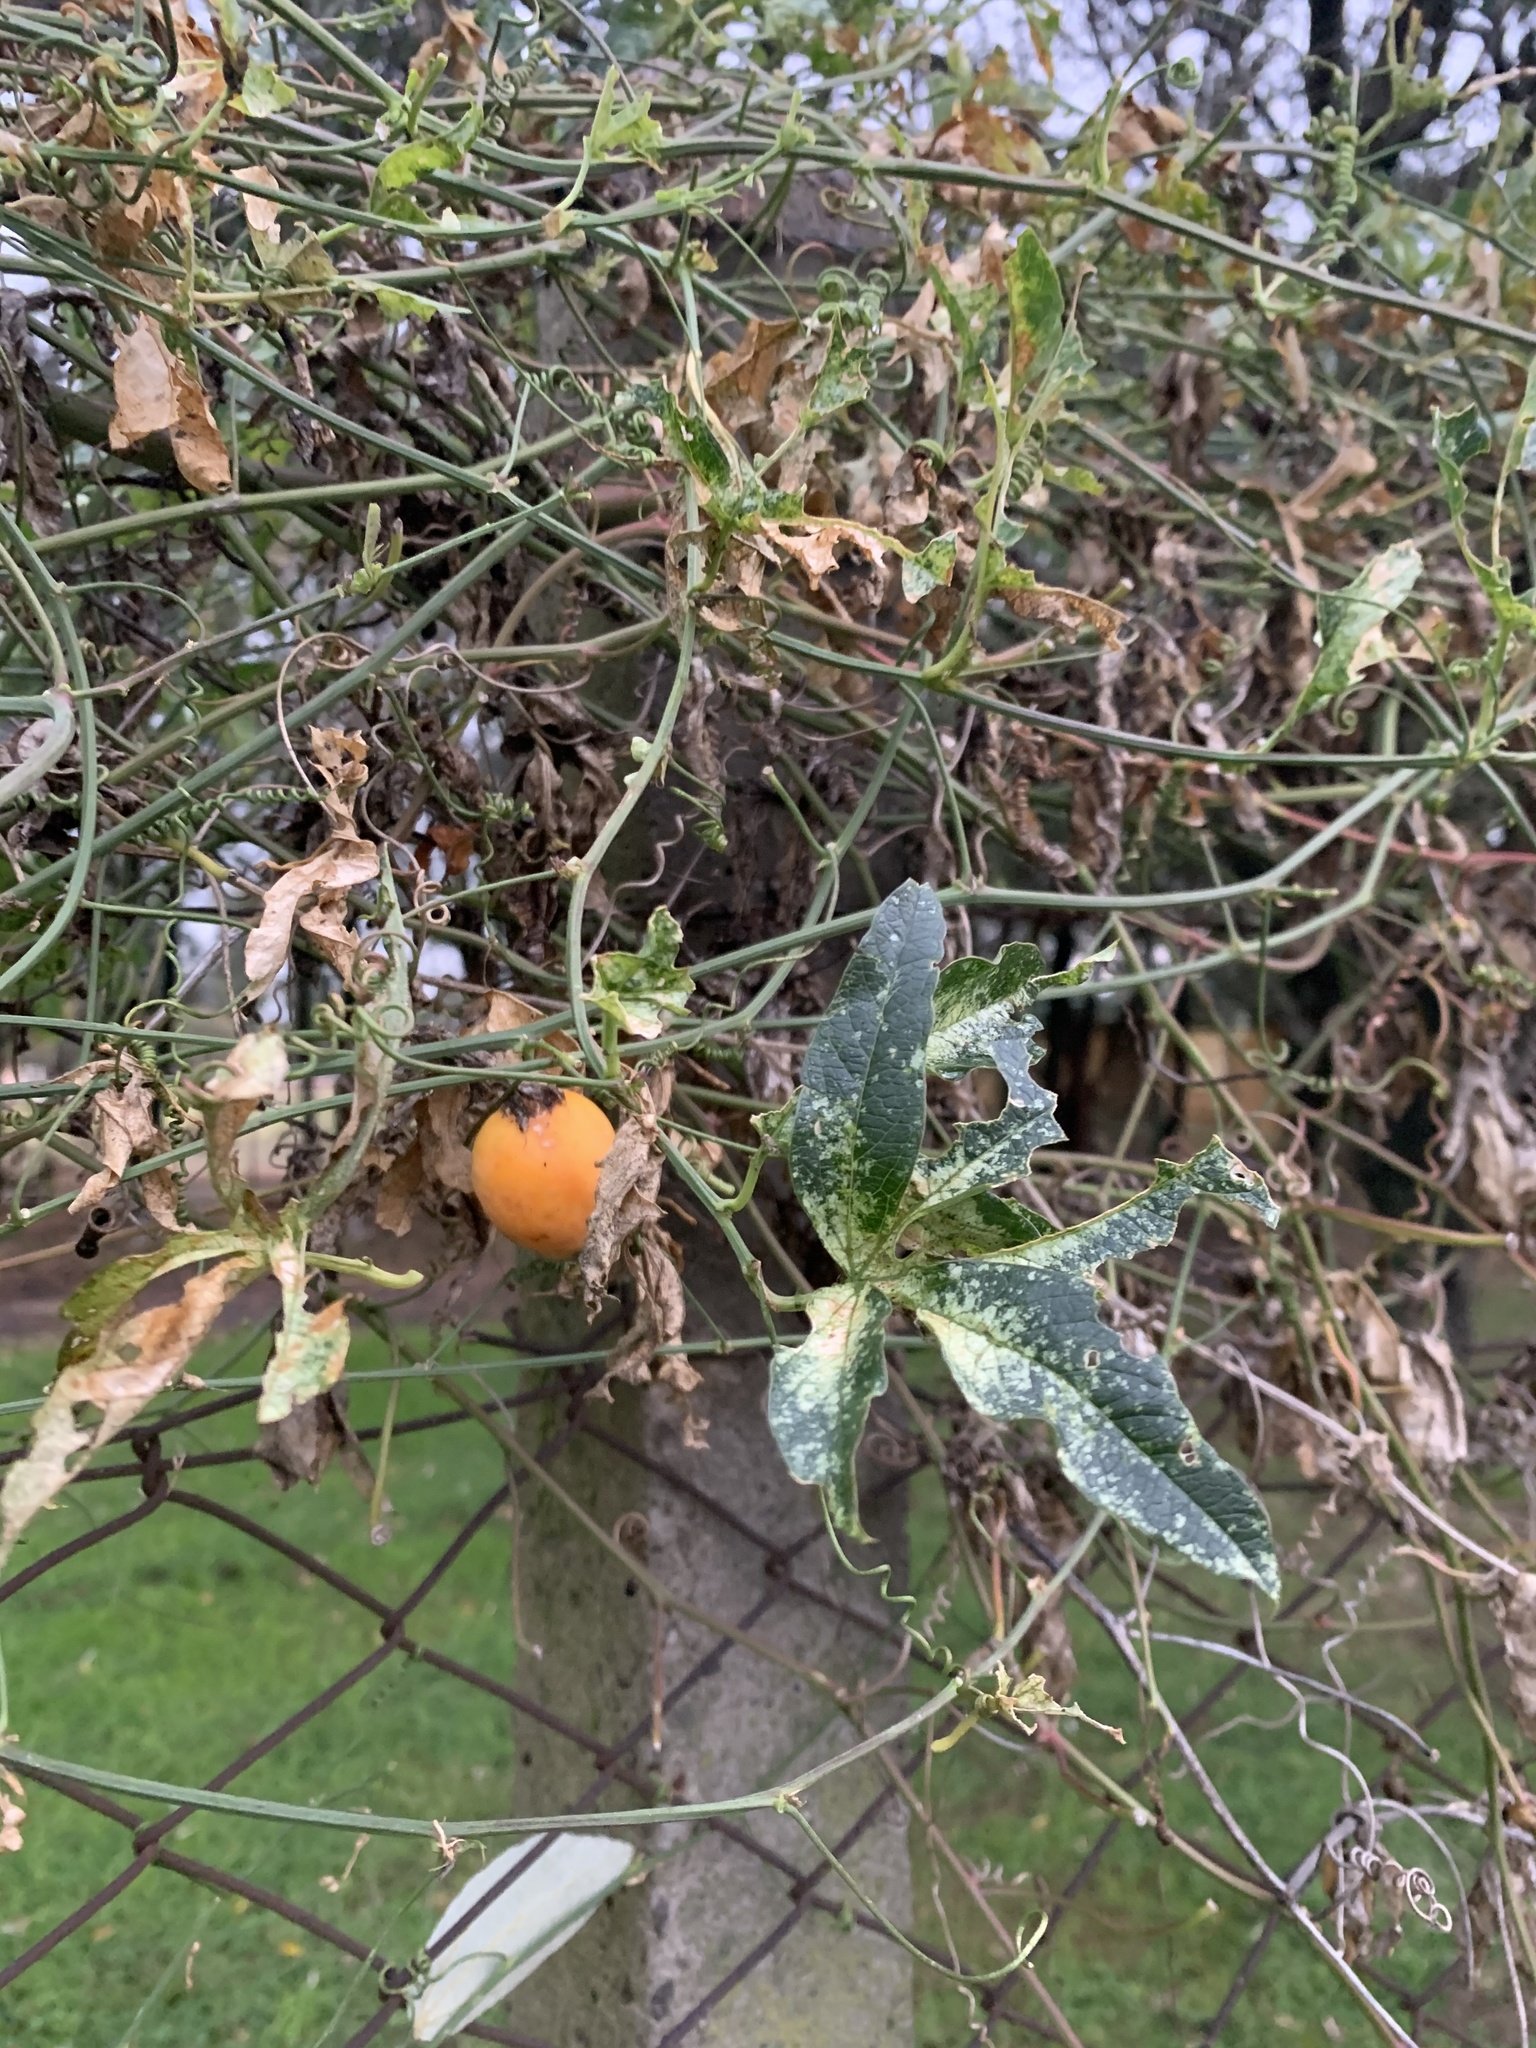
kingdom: Plantae
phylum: Tracheophyta
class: Magnoliopsida
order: Malpighiales
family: Passifloraceae
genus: Passiflora
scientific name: Passiflora caerulea
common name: Blue passionflower
